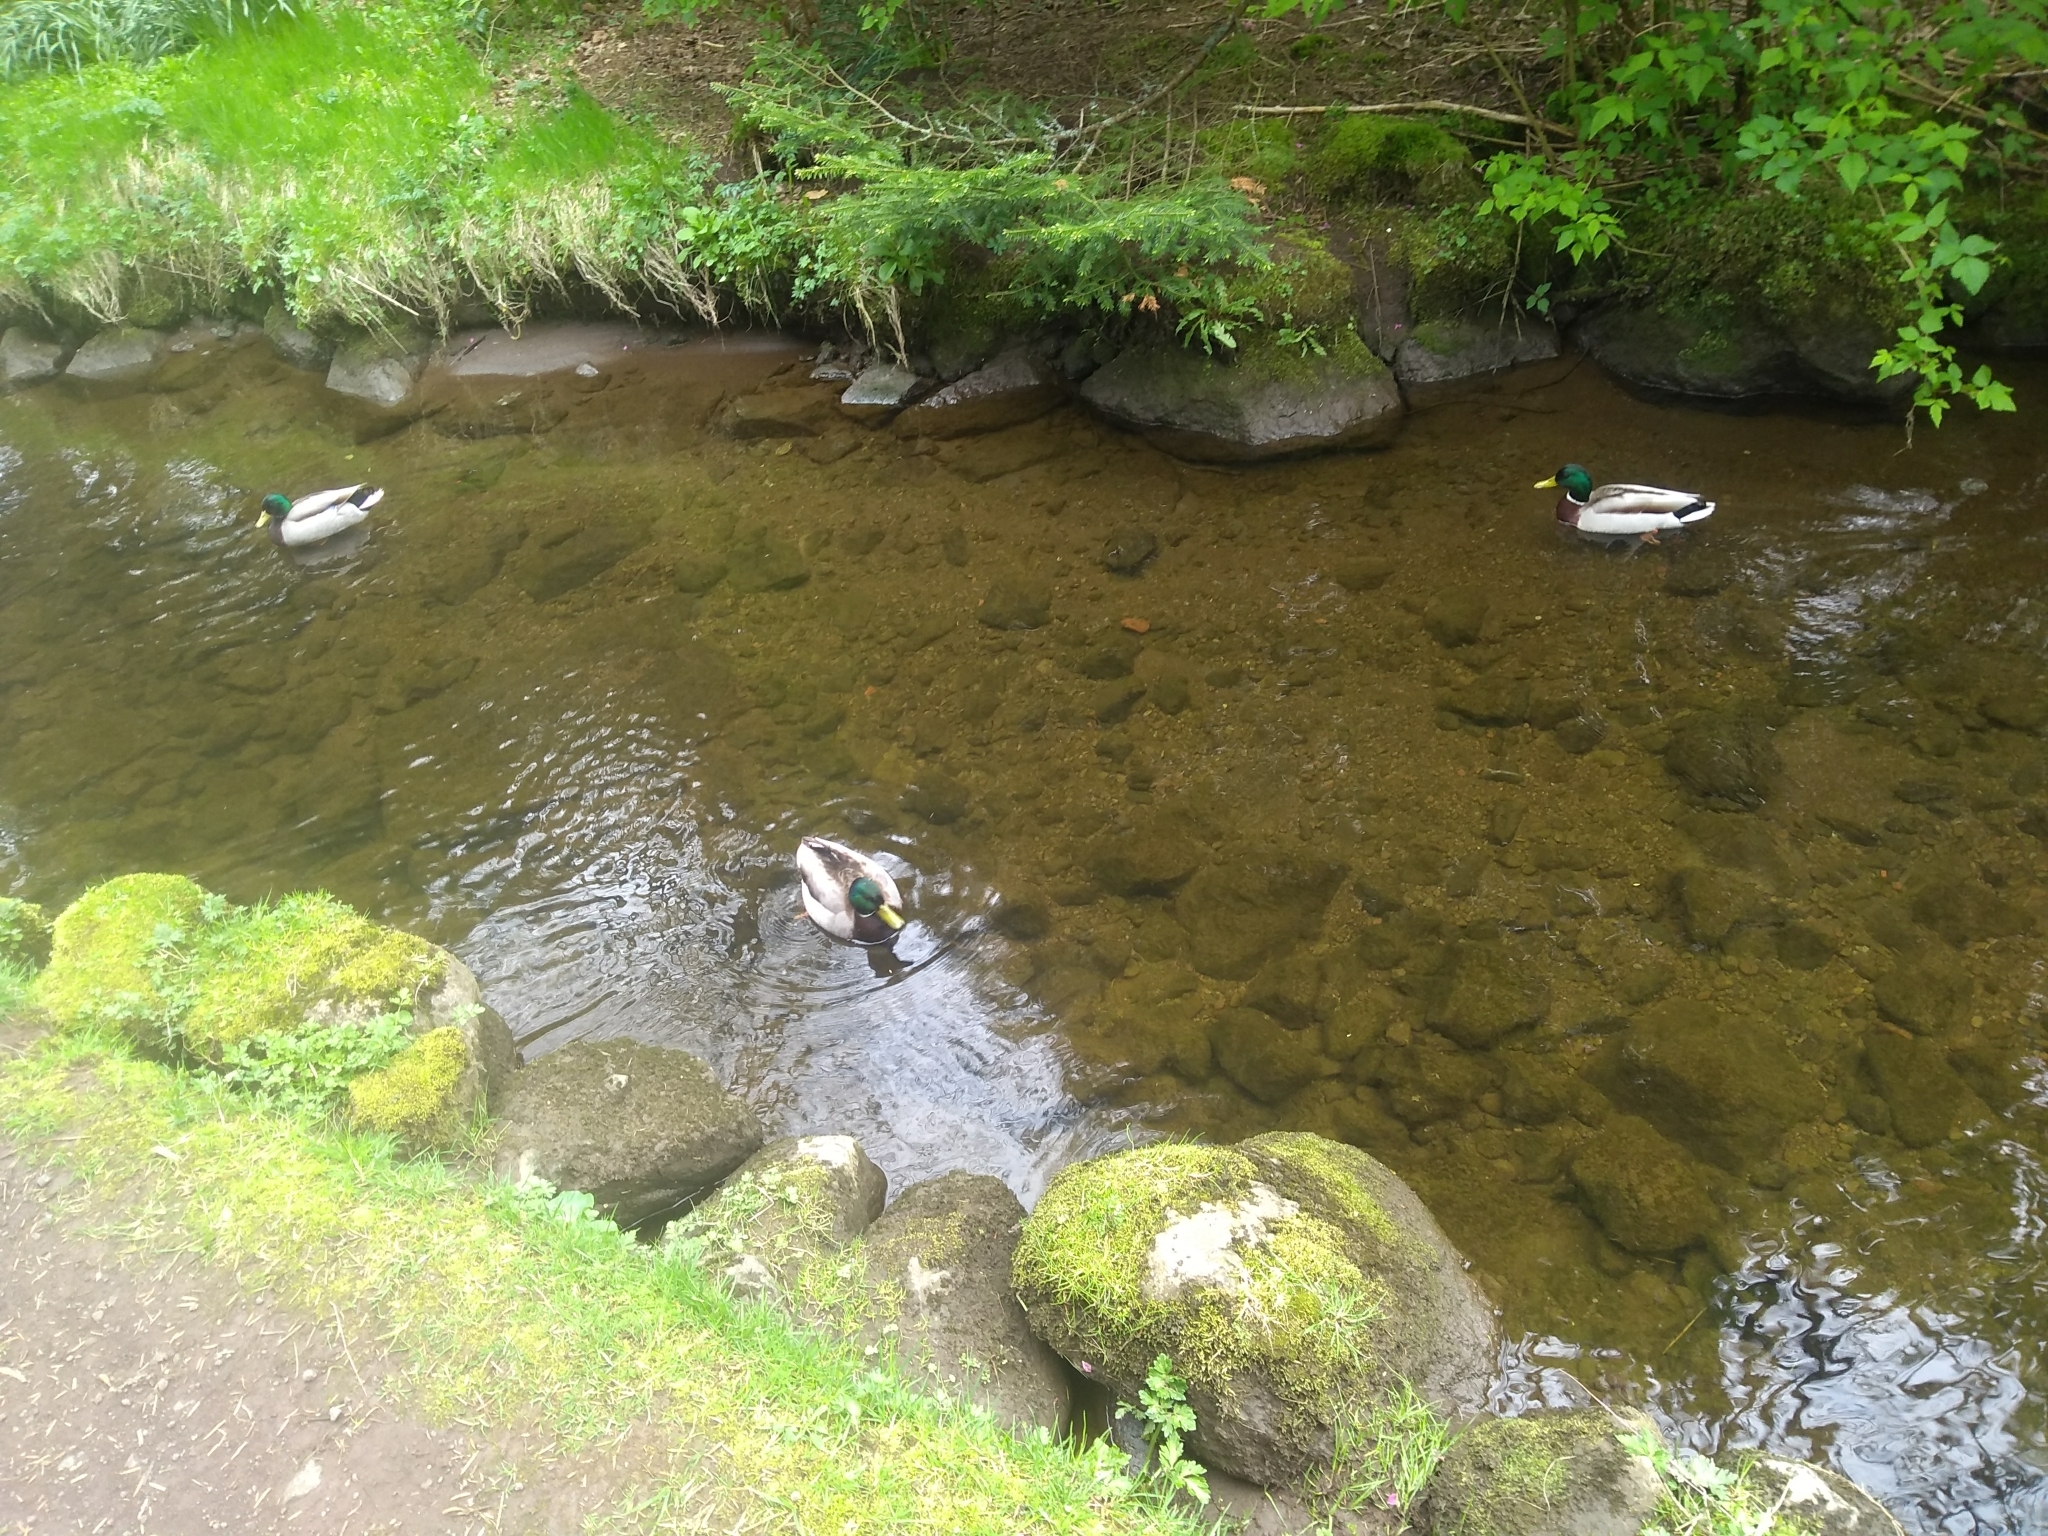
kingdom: Animalia
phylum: Chordata
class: Aves
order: Anseriformes
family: Anatidae
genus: Anas
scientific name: Anas platyrhynchos
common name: Mallard
